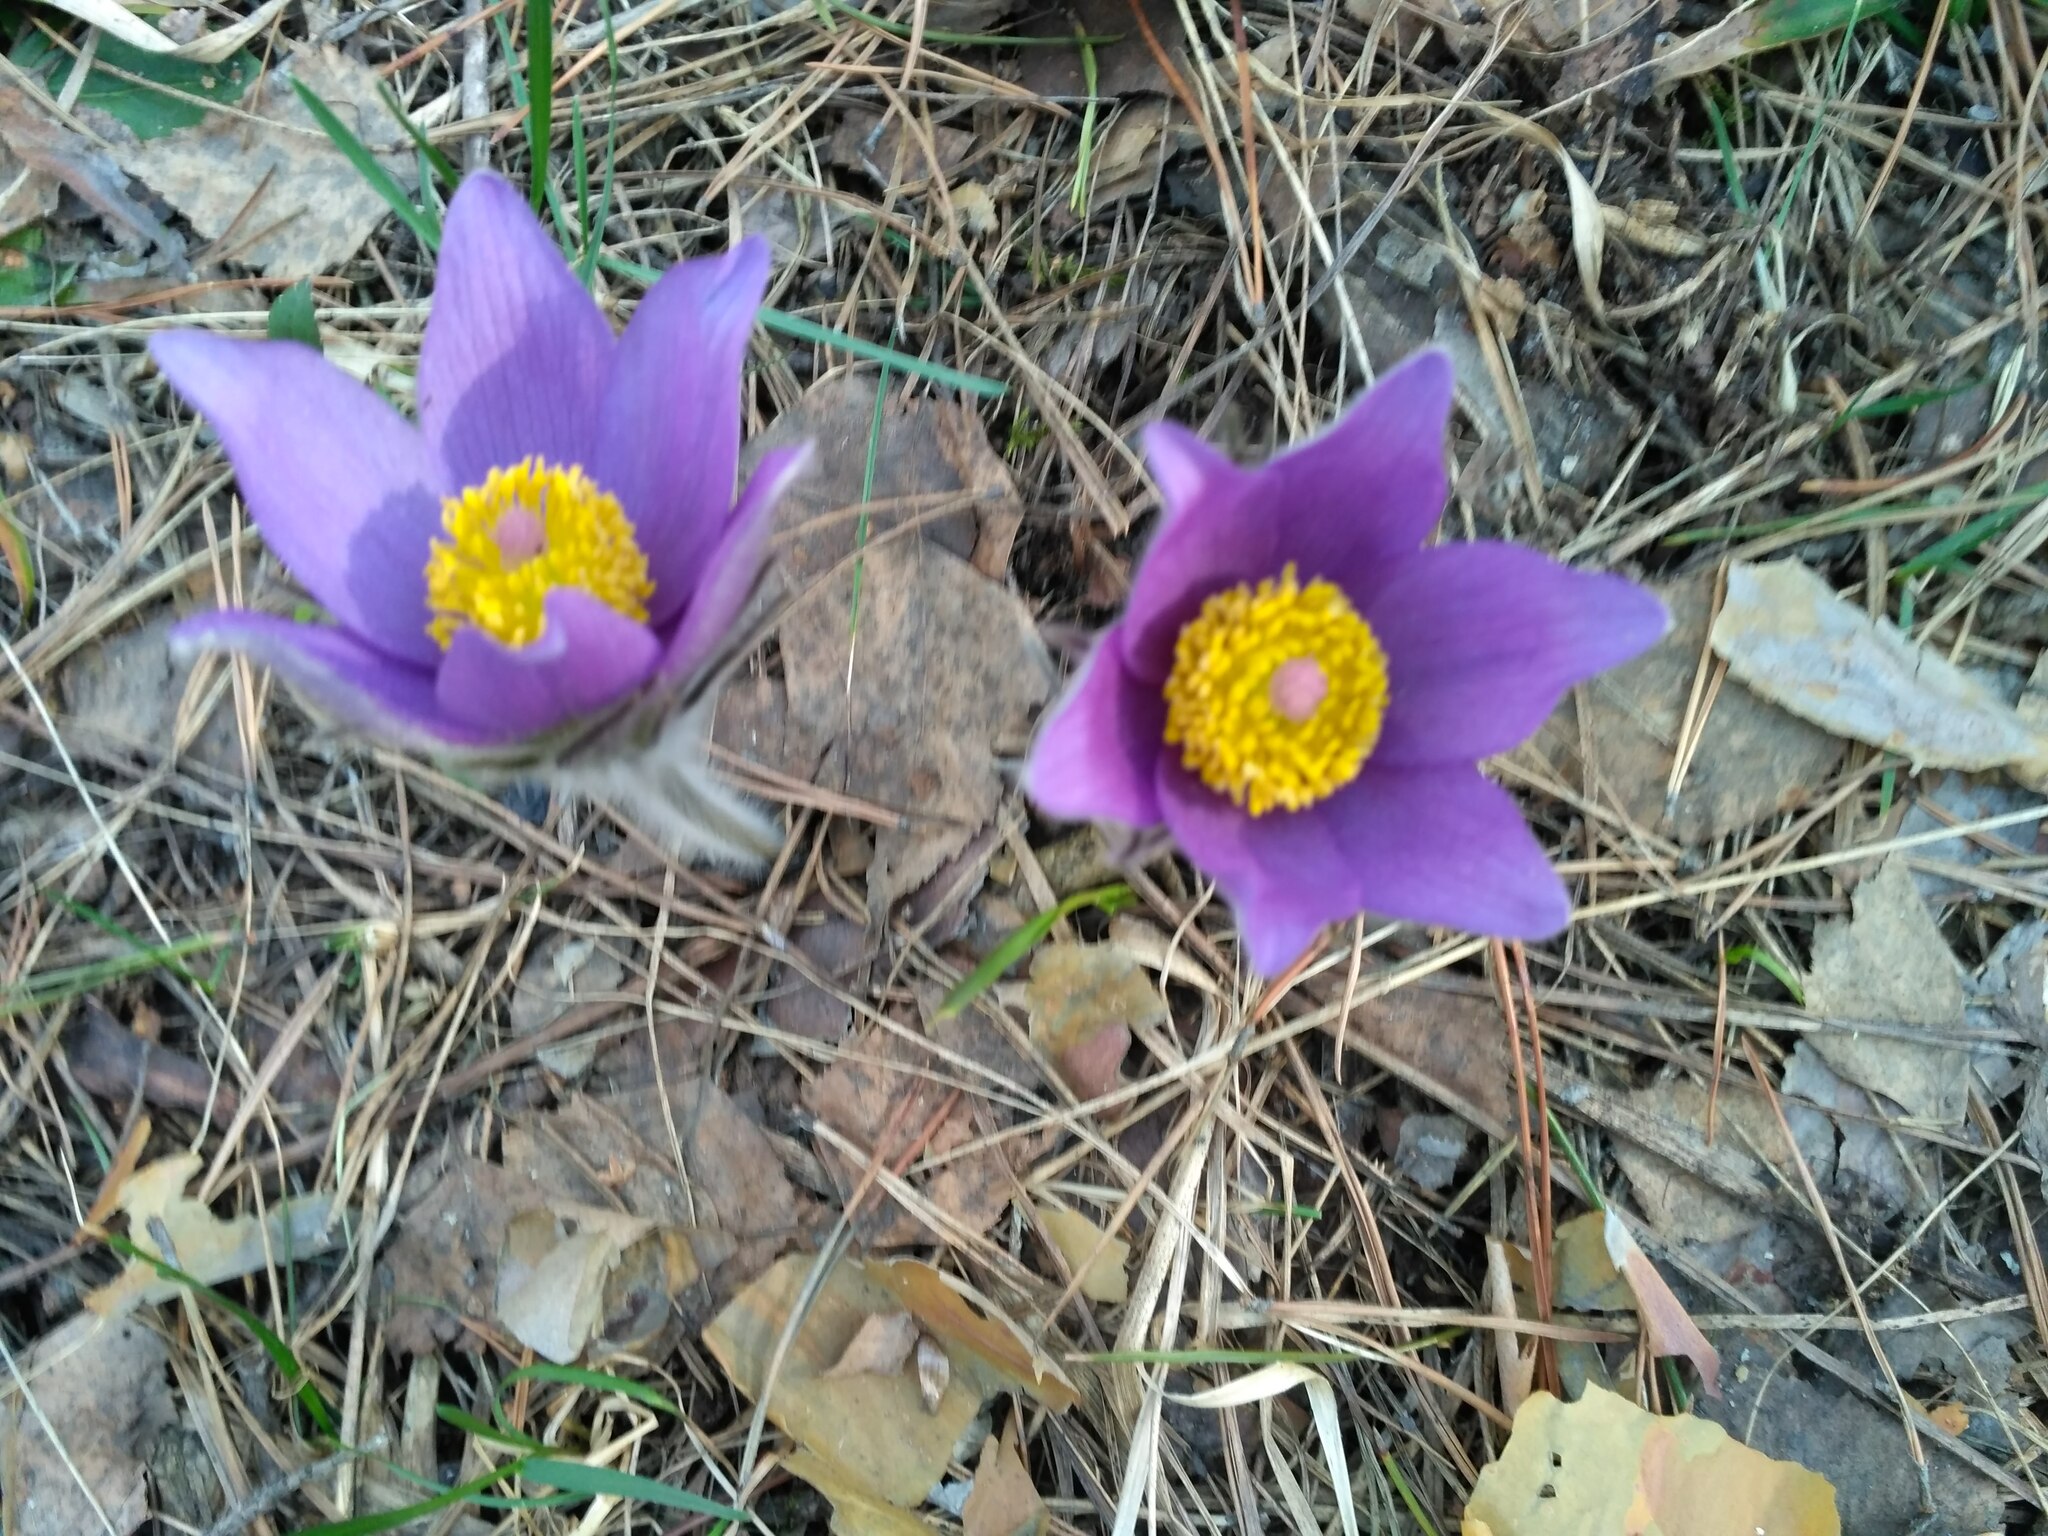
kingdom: Plantae
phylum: Tracheophyta
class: Magnoliopsida
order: Ranunculales
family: Ranunculaceae
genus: Pulsatilla
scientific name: Pulsatilla patens
